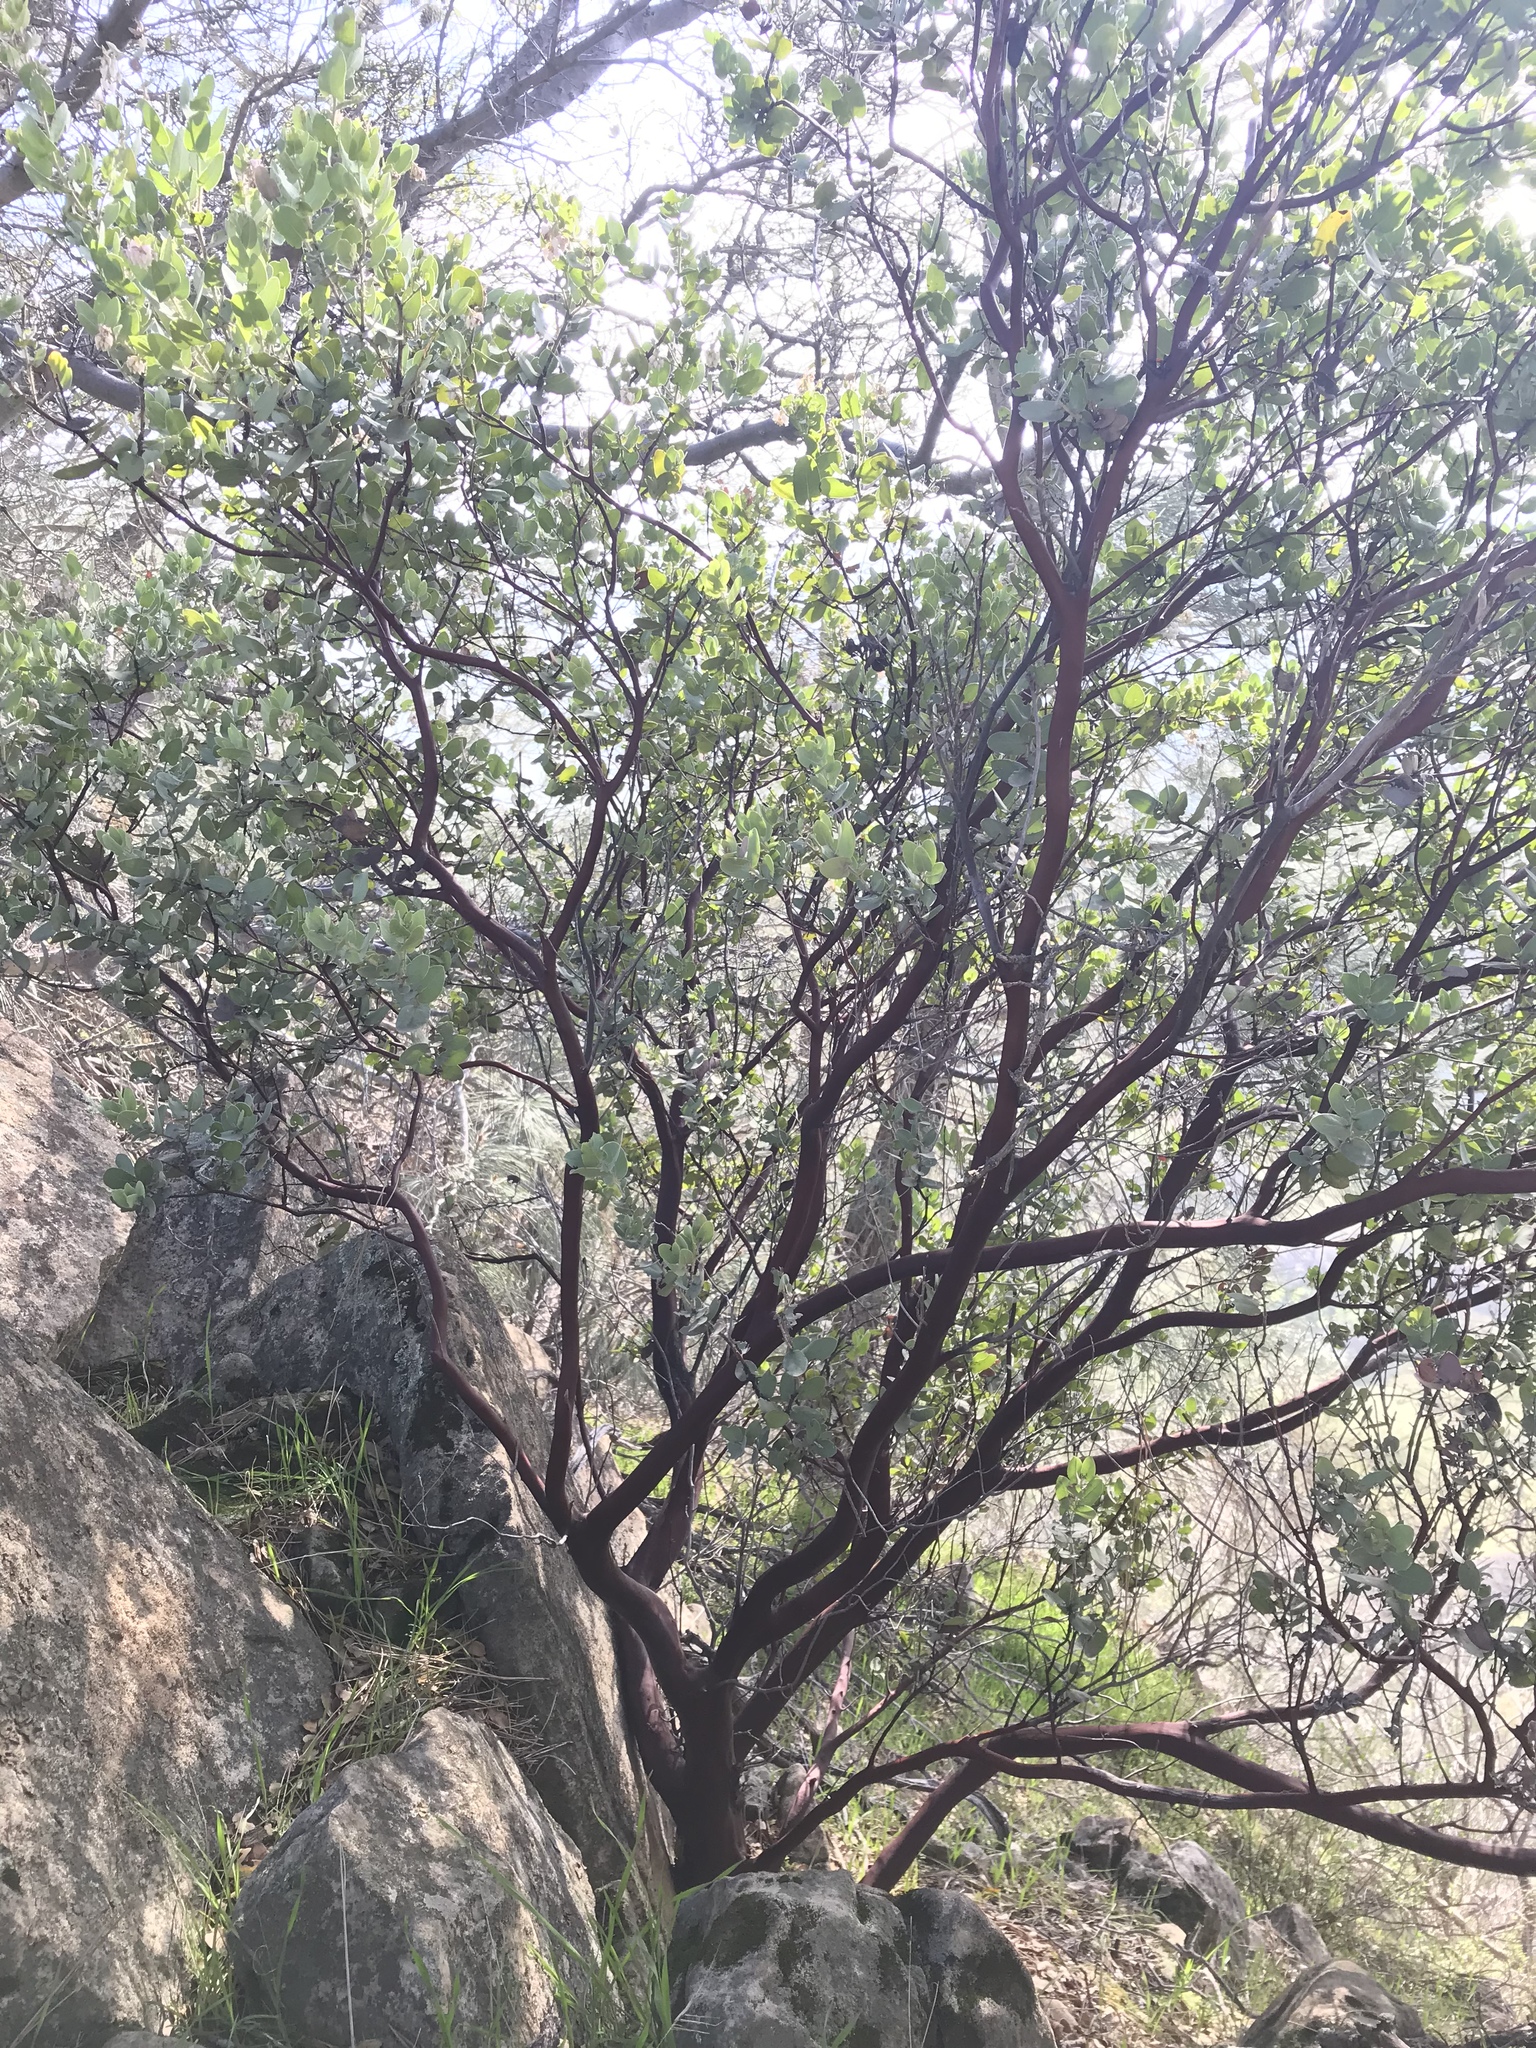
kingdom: Plantae
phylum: Tracheophyta
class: Magnoliopsida
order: Ericales
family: Ericaceae
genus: Arctostaphylos
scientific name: Arctostaphylos auriculata
